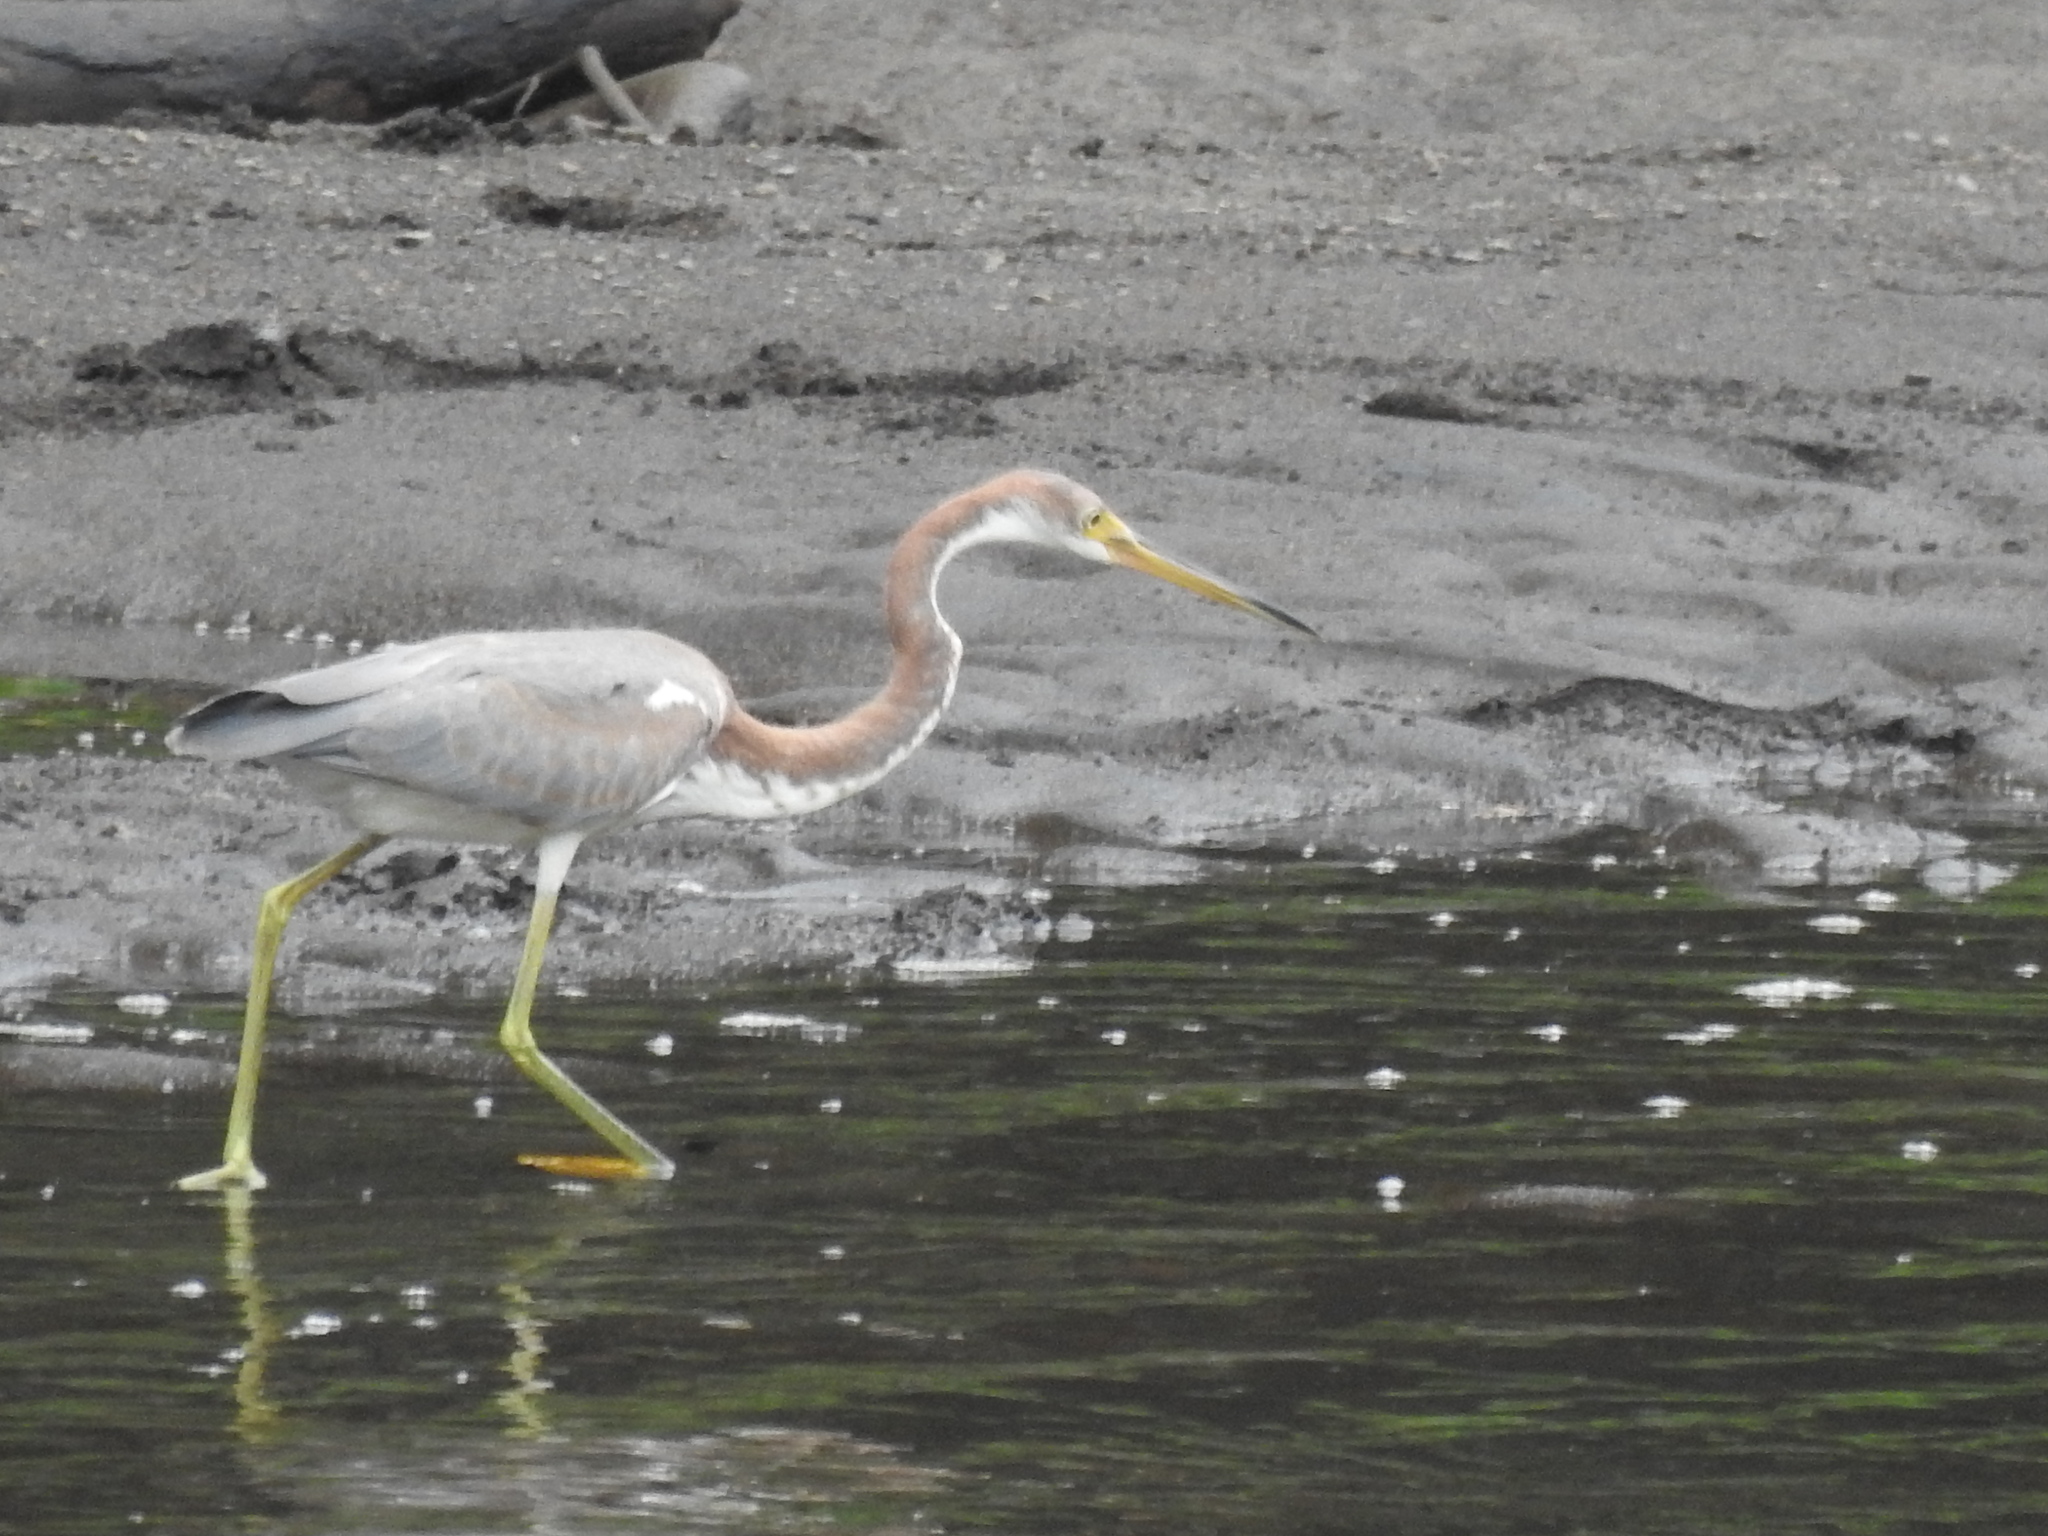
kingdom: Animalia
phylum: Chordata
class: Aves
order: Pelecaniformes
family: Ardeidae
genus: Egretta
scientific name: Egretta tricolor
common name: Tricolored heron
